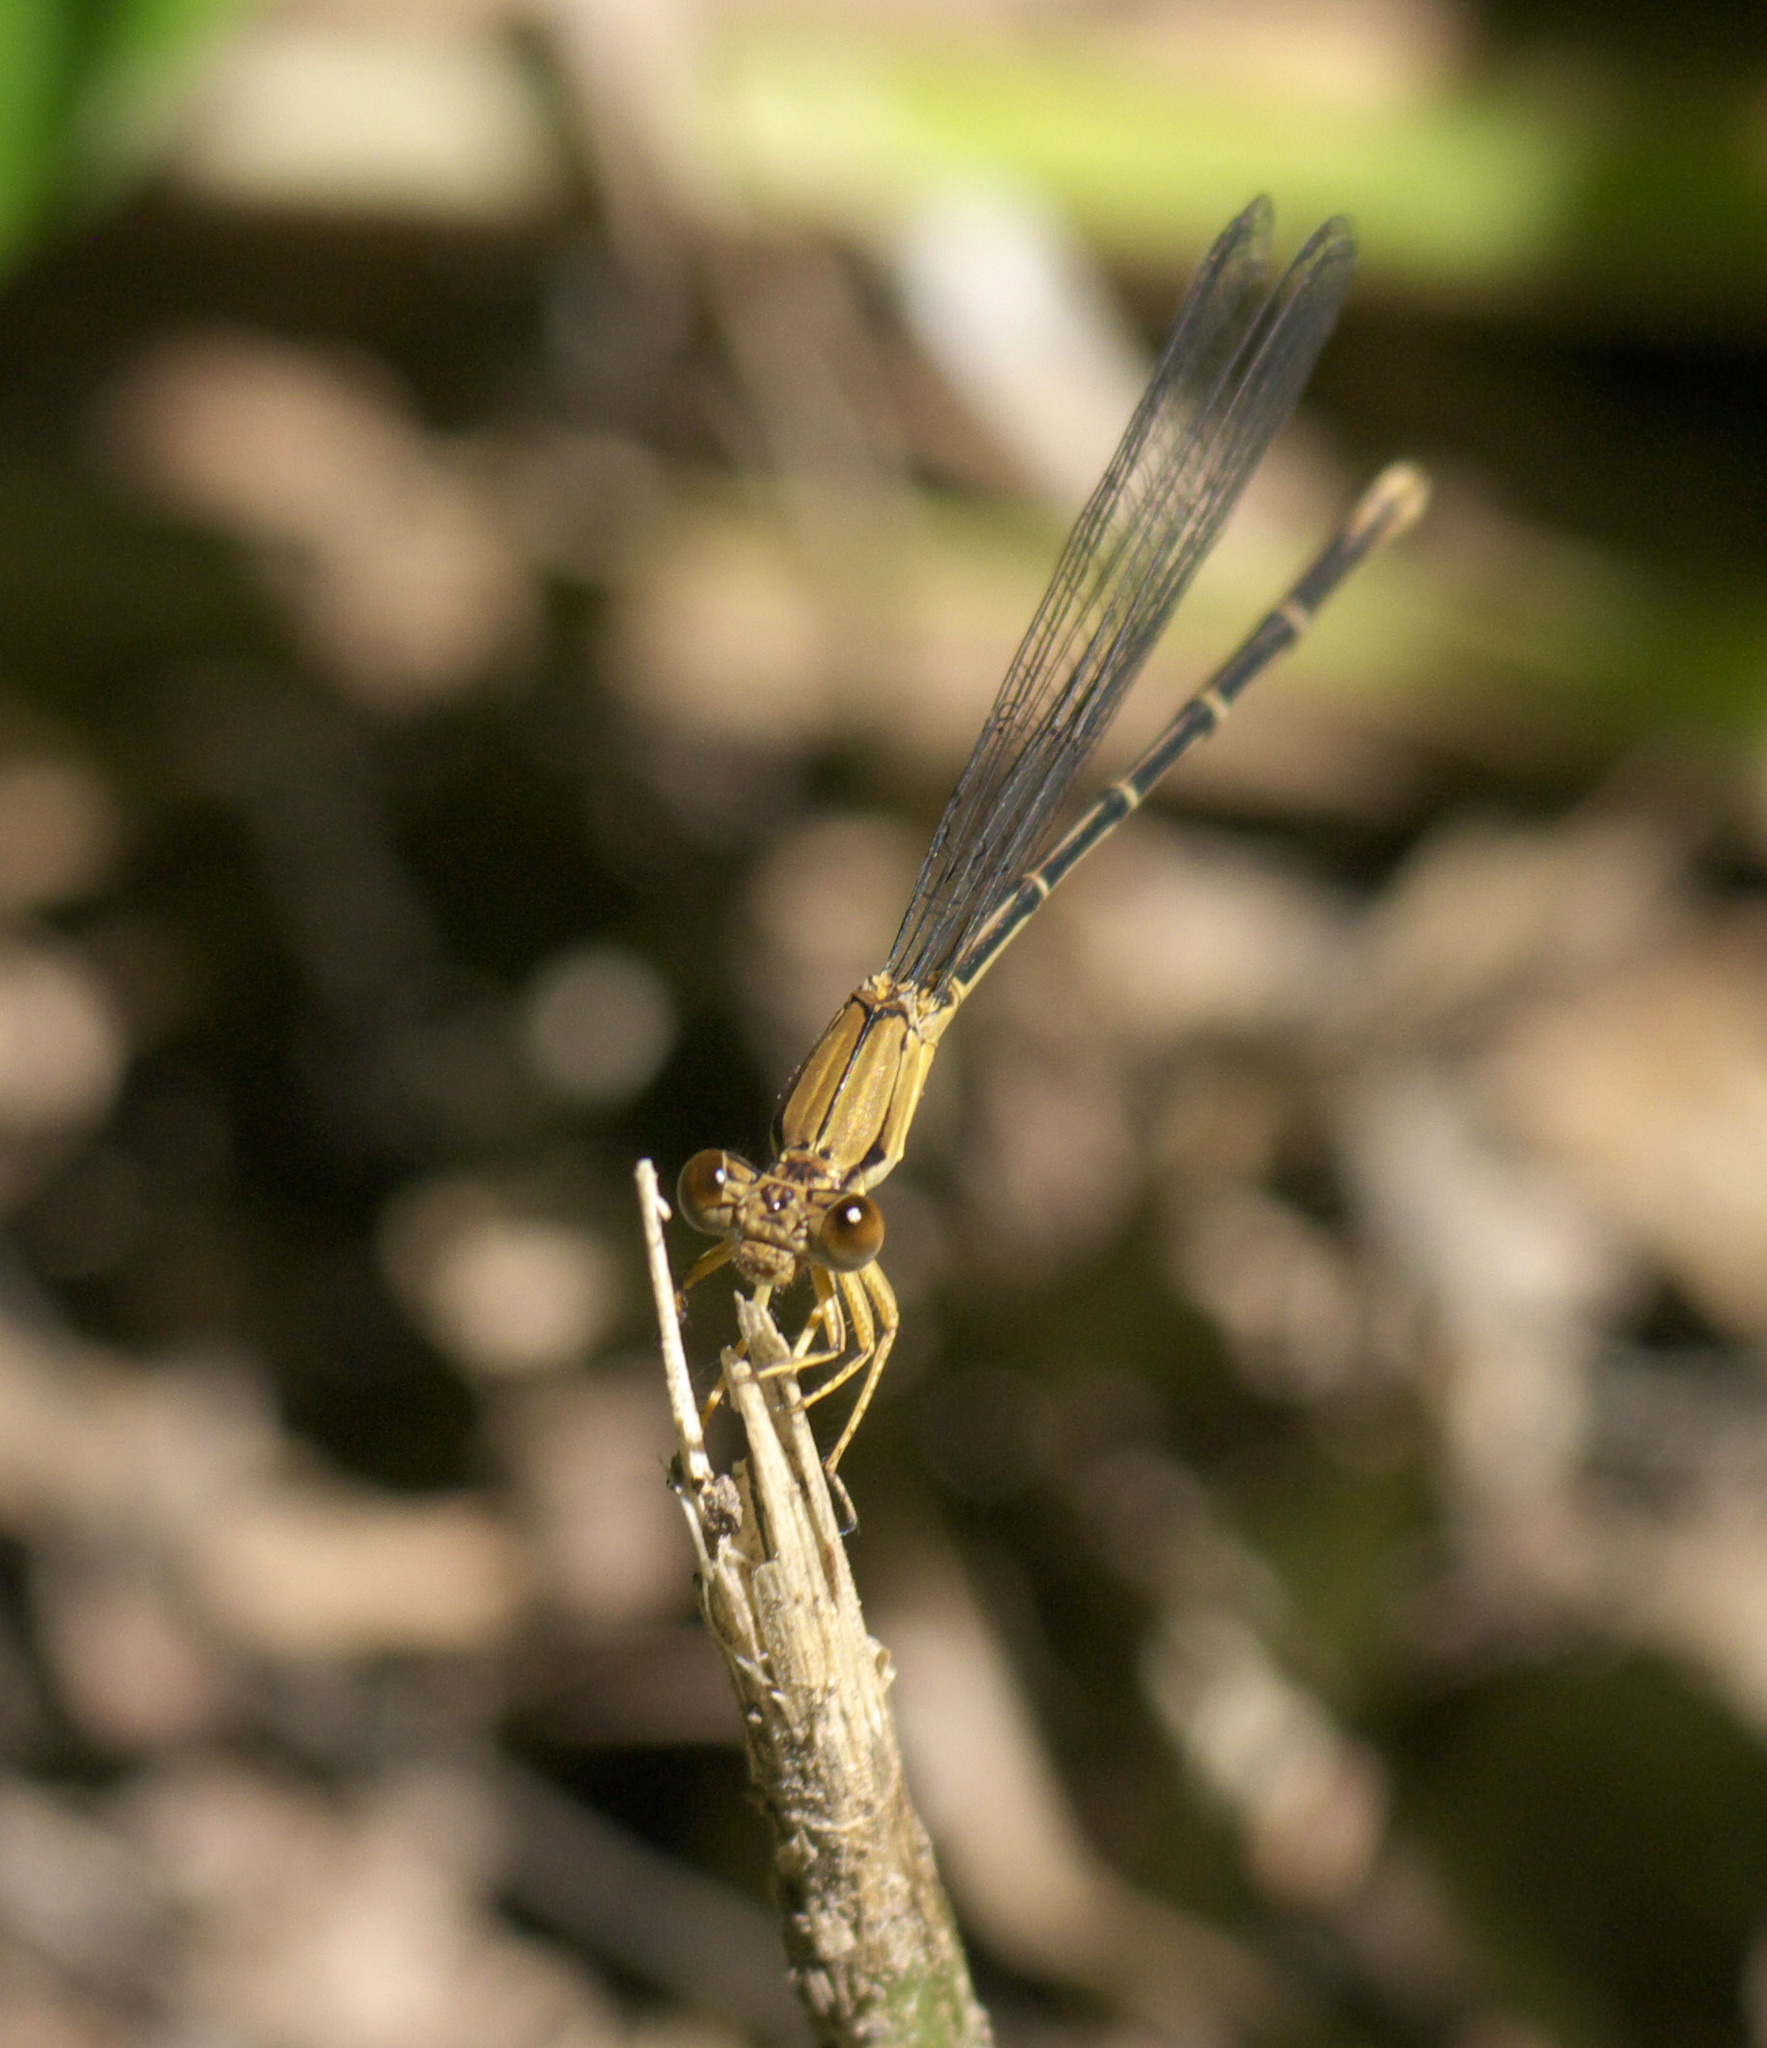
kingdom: Animalia
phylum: Arthropoda
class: Insecta
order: Odonata
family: Coenagrionidae
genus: Argia
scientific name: Argia apicalis
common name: Blue-fronted dancer
